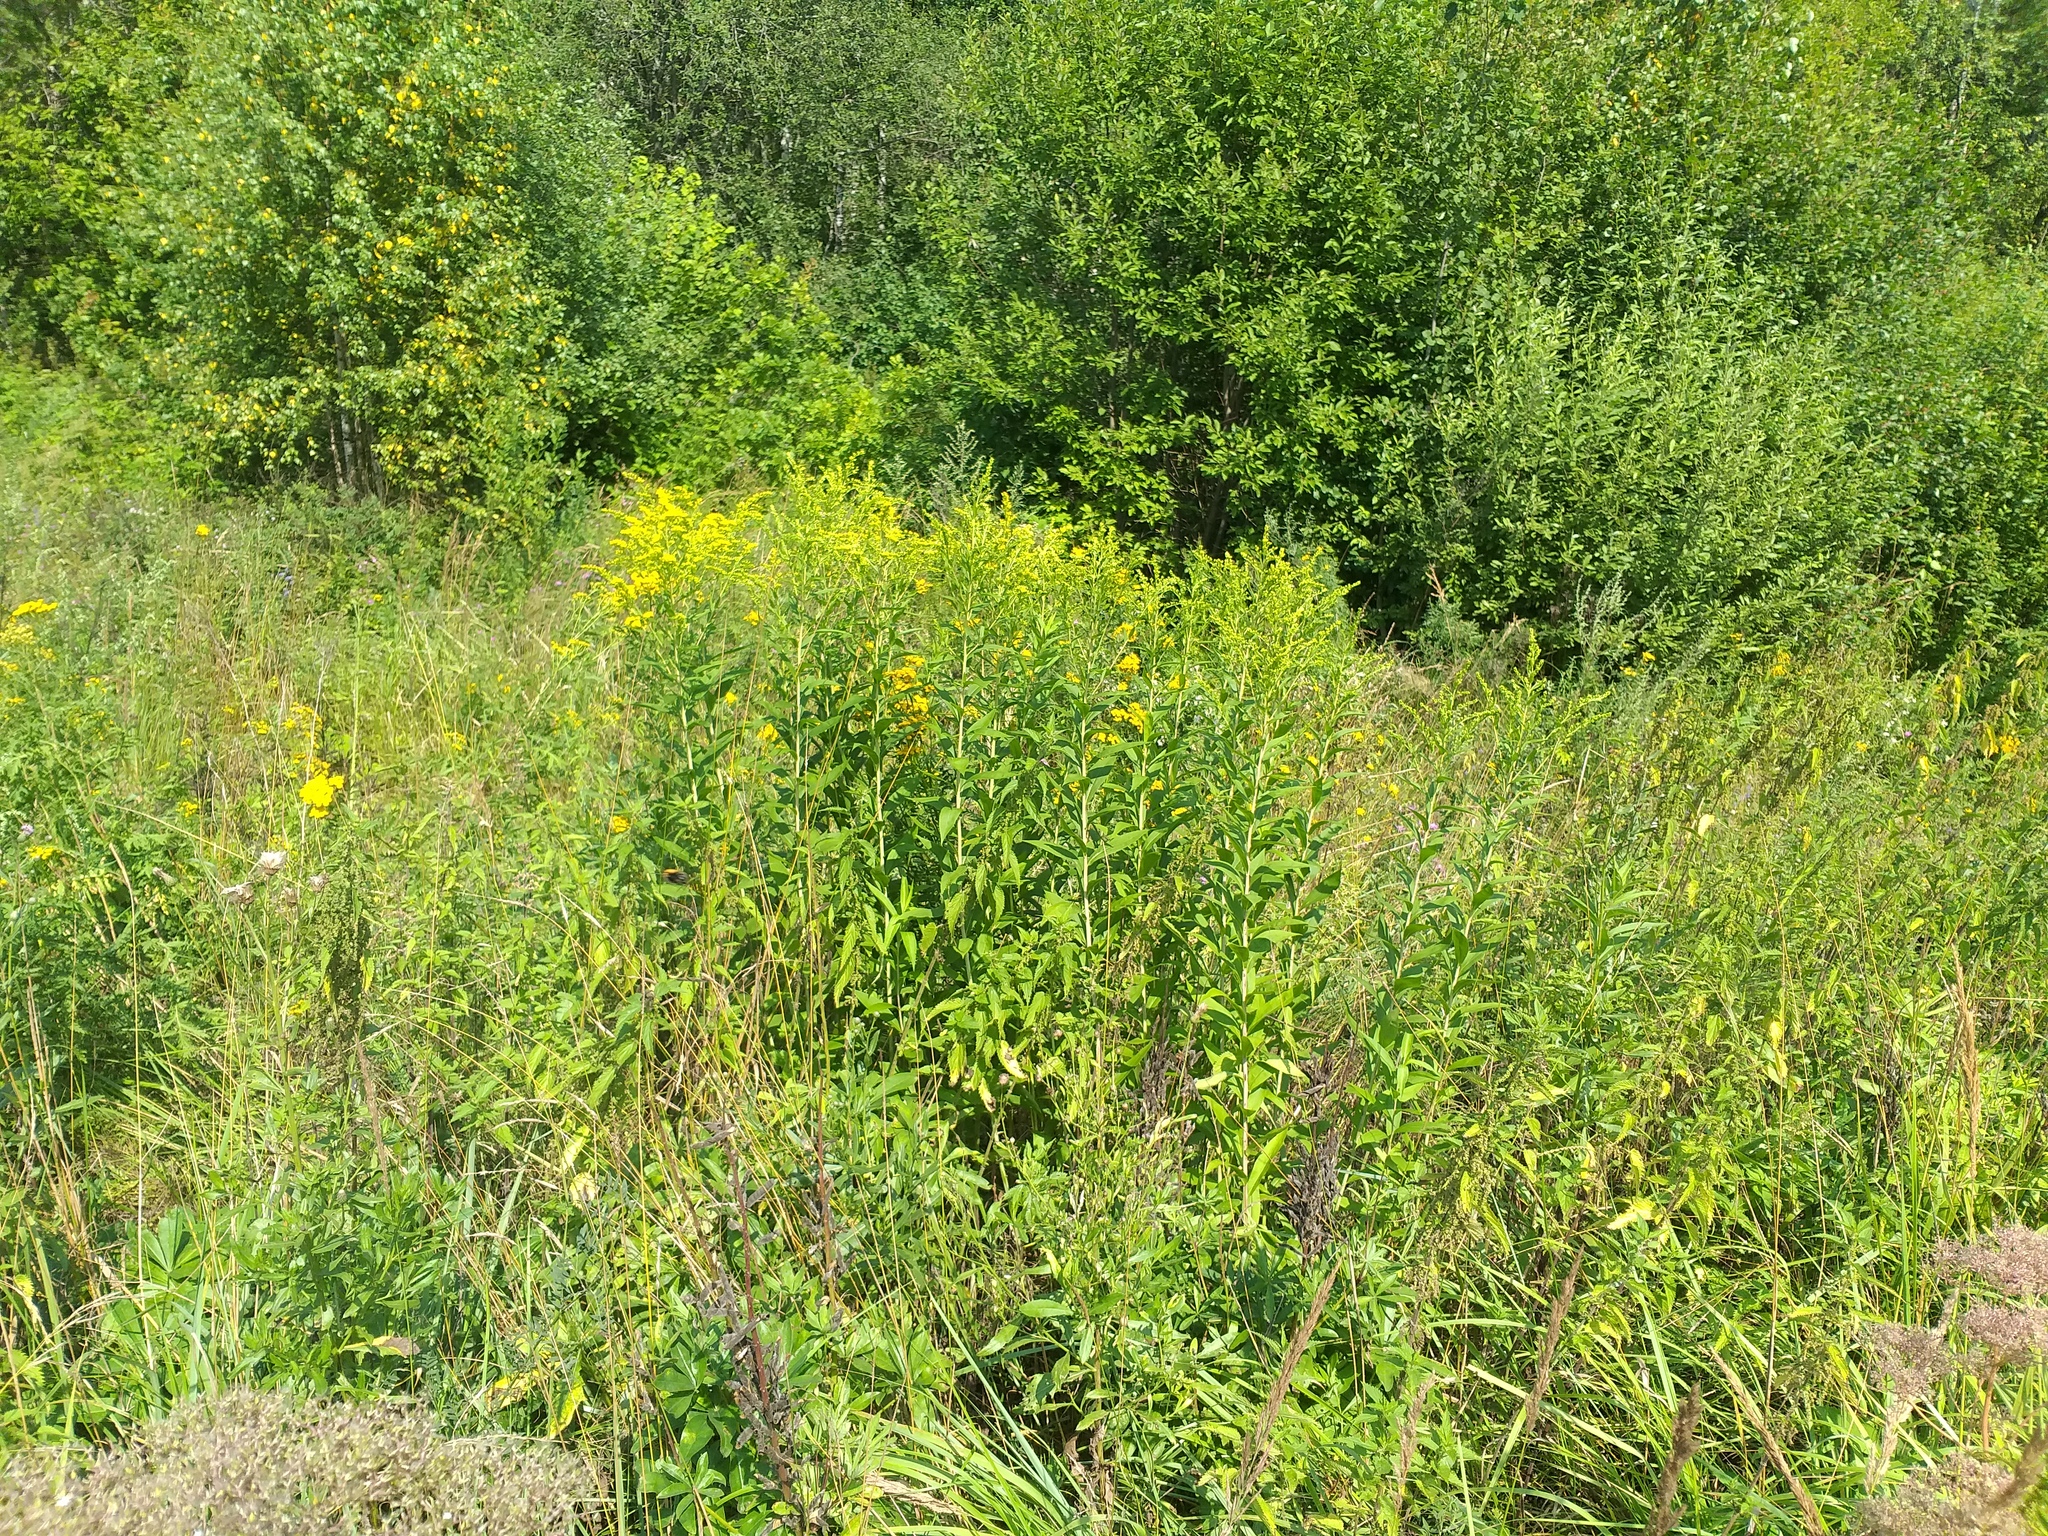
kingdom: Plantae
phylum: Tracheophyta
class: Magnoliopsida
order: Asterales
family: Asteraceae
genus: Solidago
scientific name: Solidago gigantea
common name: Giant goldenrod
